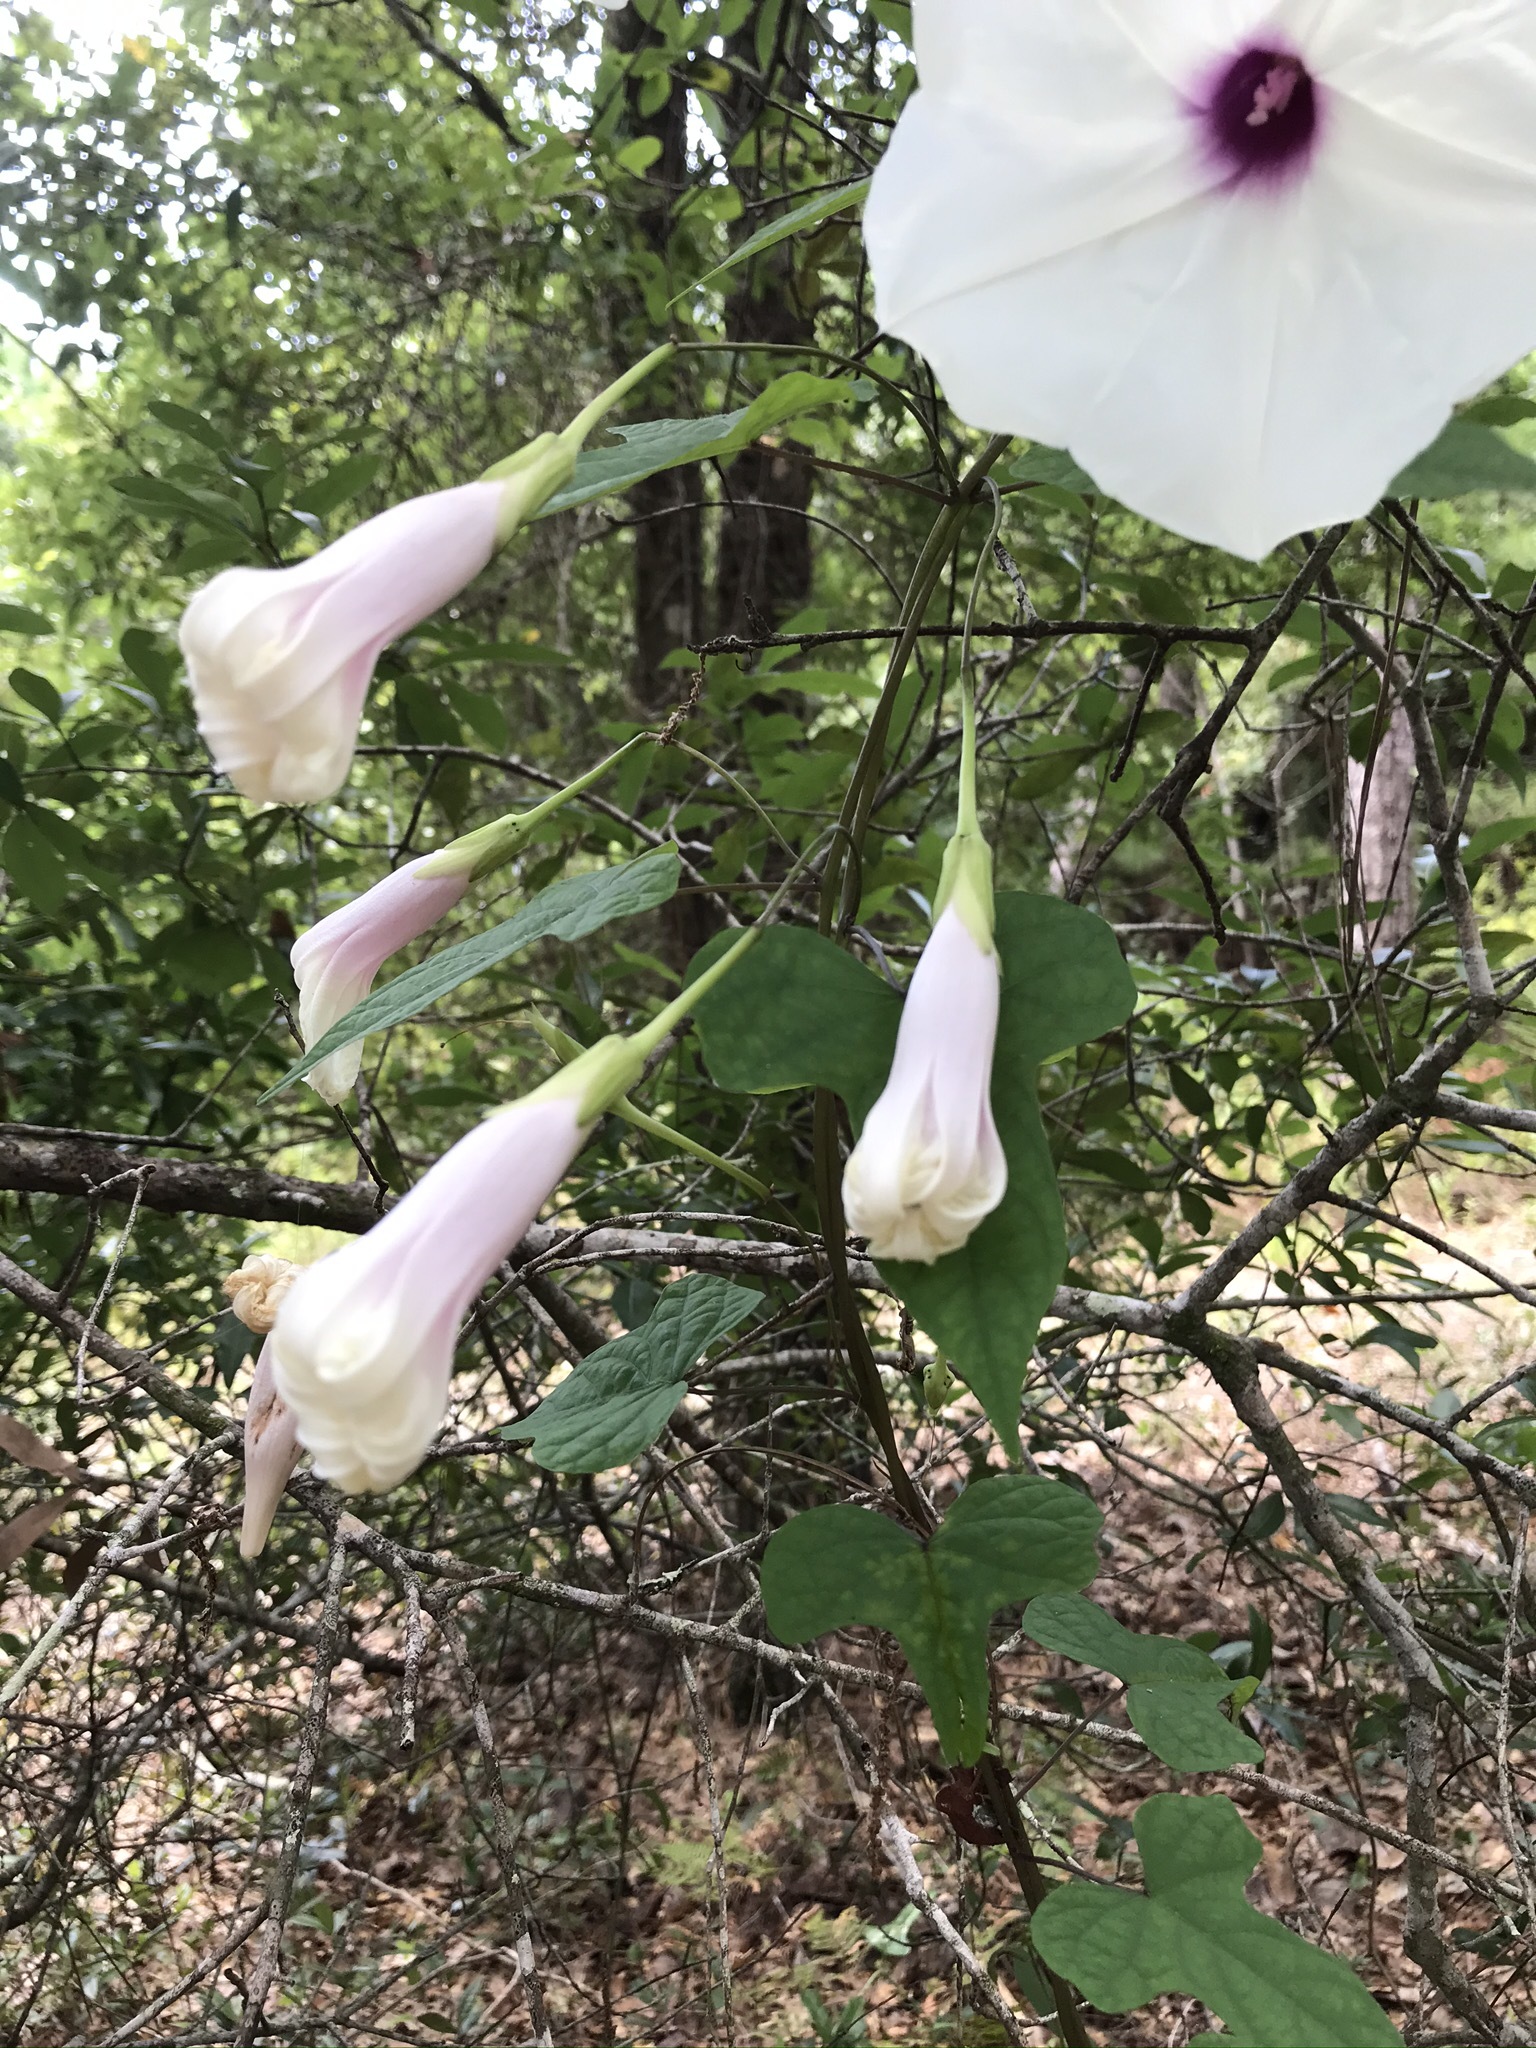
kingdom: Plantae
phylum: Tracheophyta
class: Magnoliopsida
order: Solanales
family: Convolvulaceae
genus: Ipomoea
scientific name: Ipomoea pandurata
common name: Man-of-the-earth
